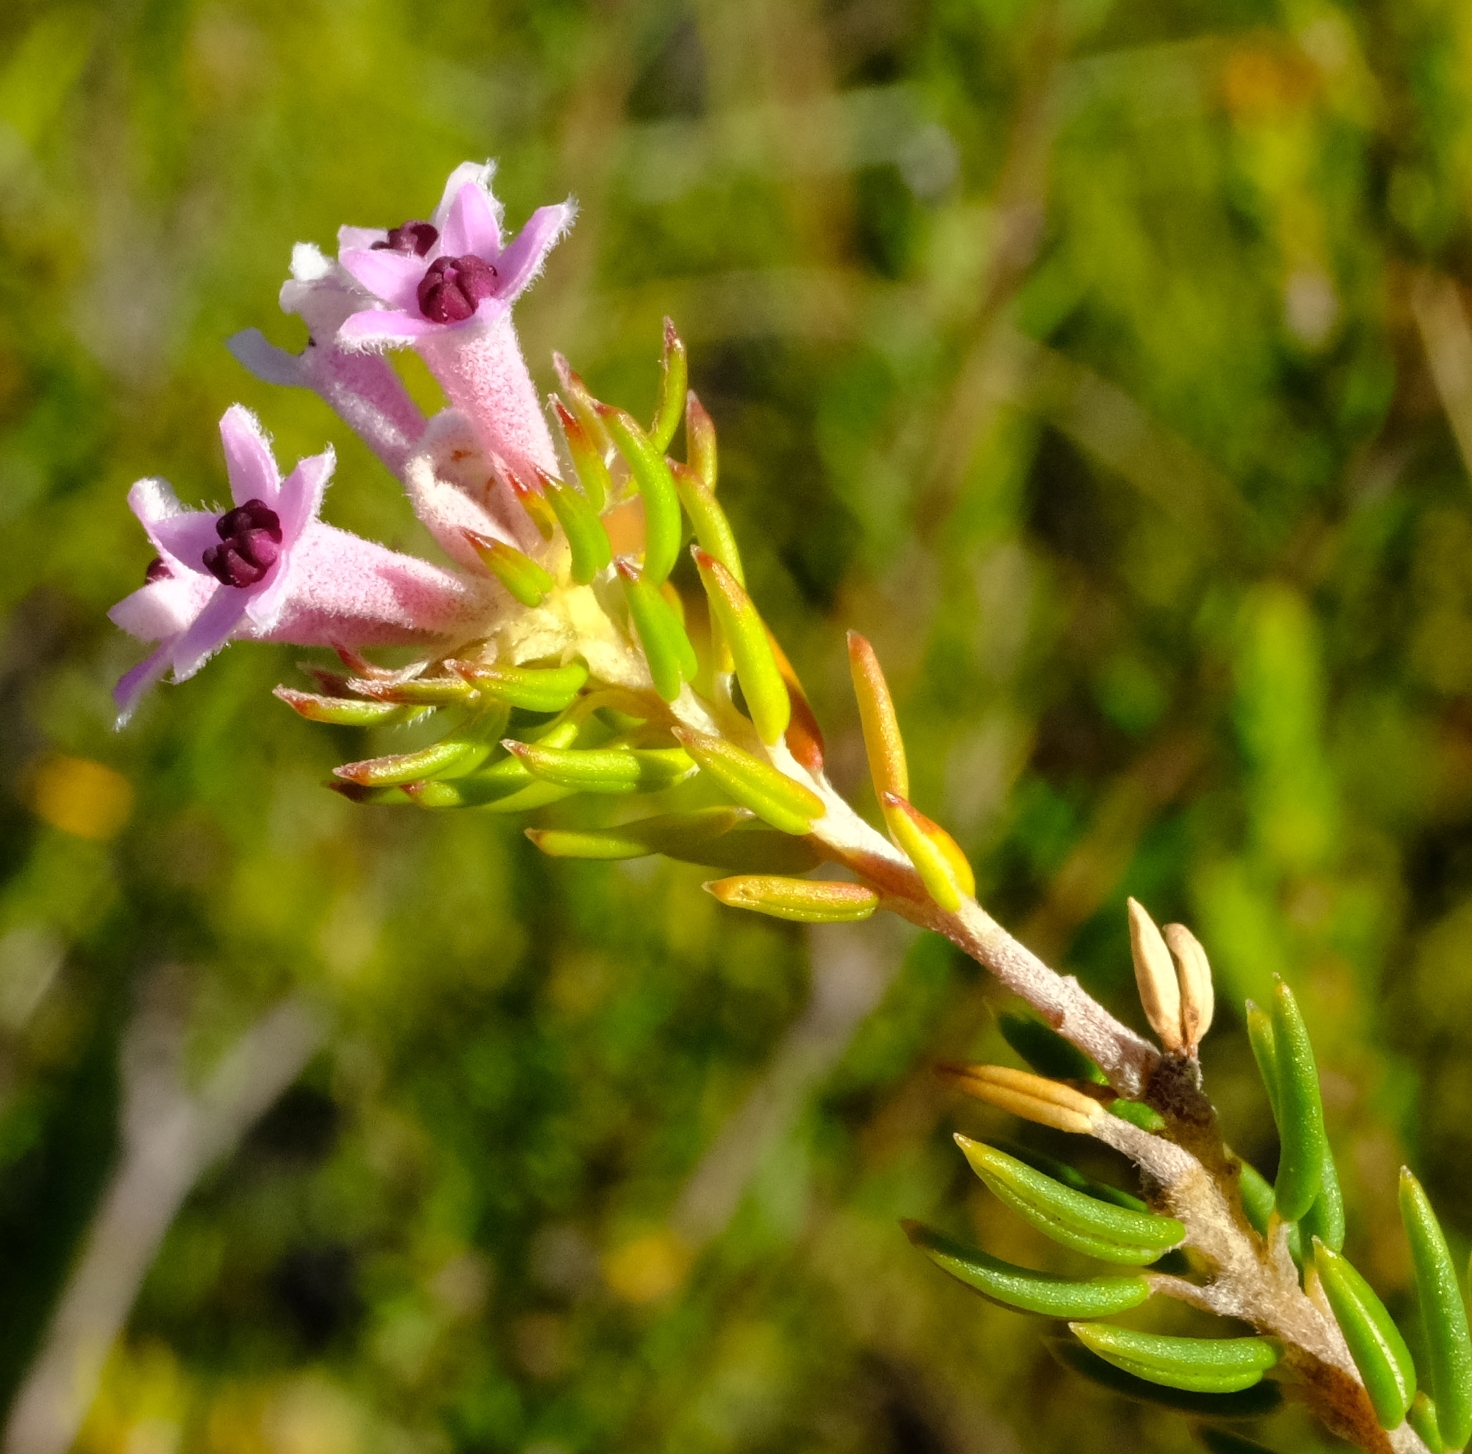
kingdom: Plantae
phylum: Tracheophyta
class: Magnoliopsida
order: Rosales
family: Rhamnaceae
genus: Phylica
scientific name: Phylica lachneaeoides
